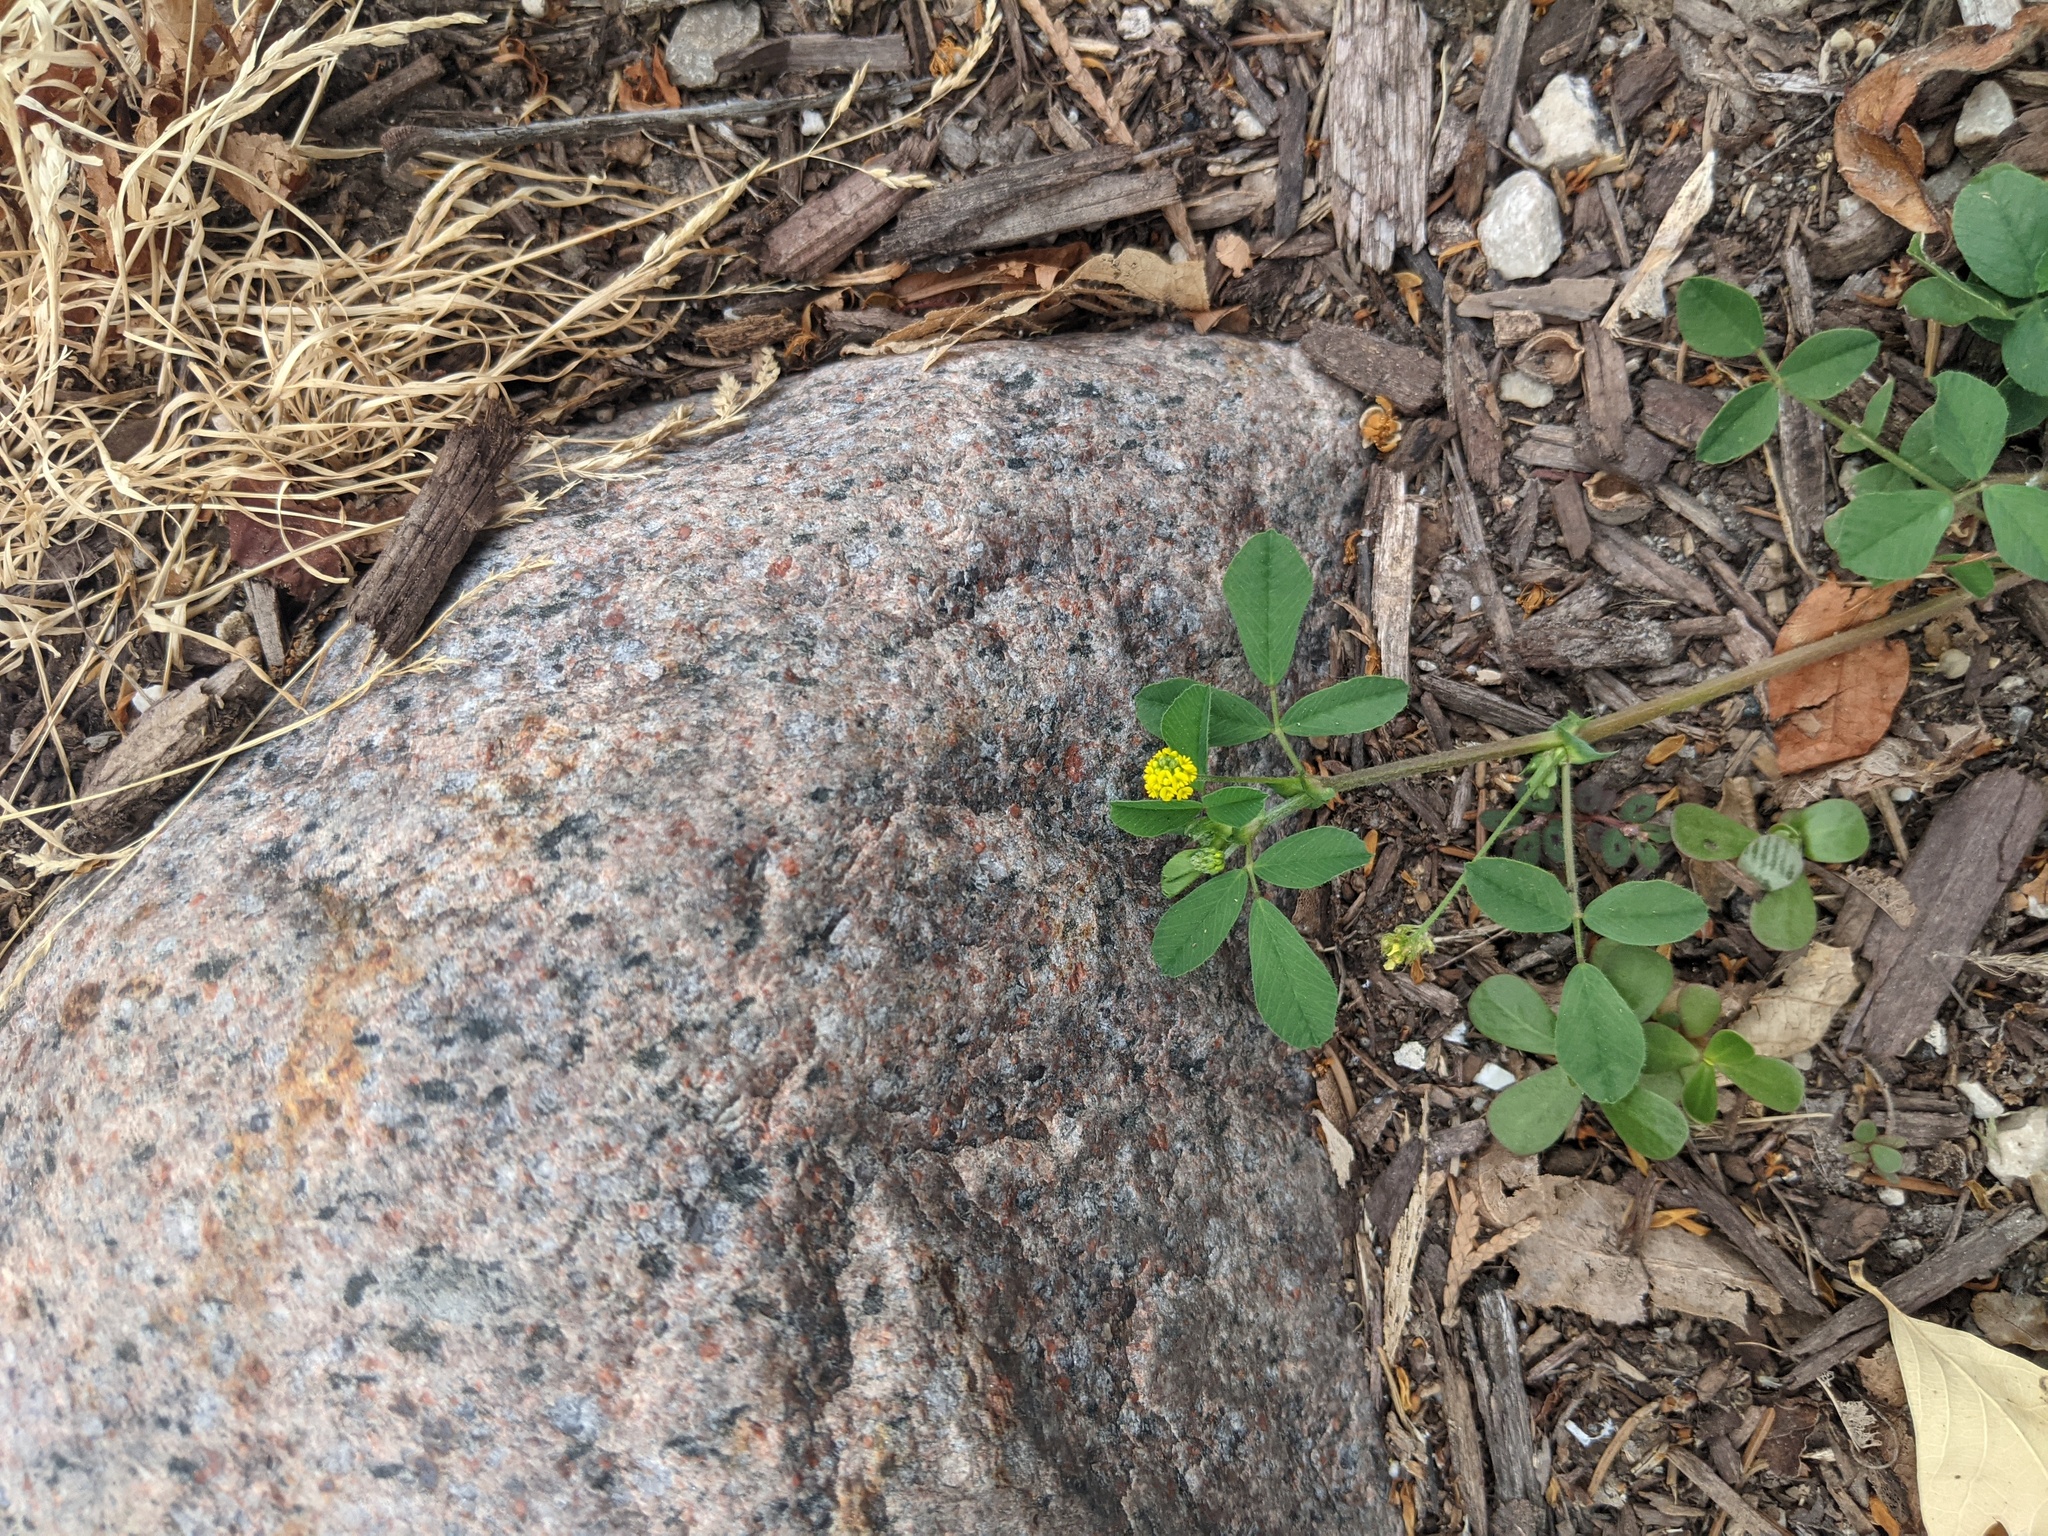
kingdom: Plantae
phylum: Tracheophyta
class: Magnoliopsida
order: Fabales
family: Fabaceae
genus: Medicago
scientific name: Medicago lupulina
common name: Black medick
